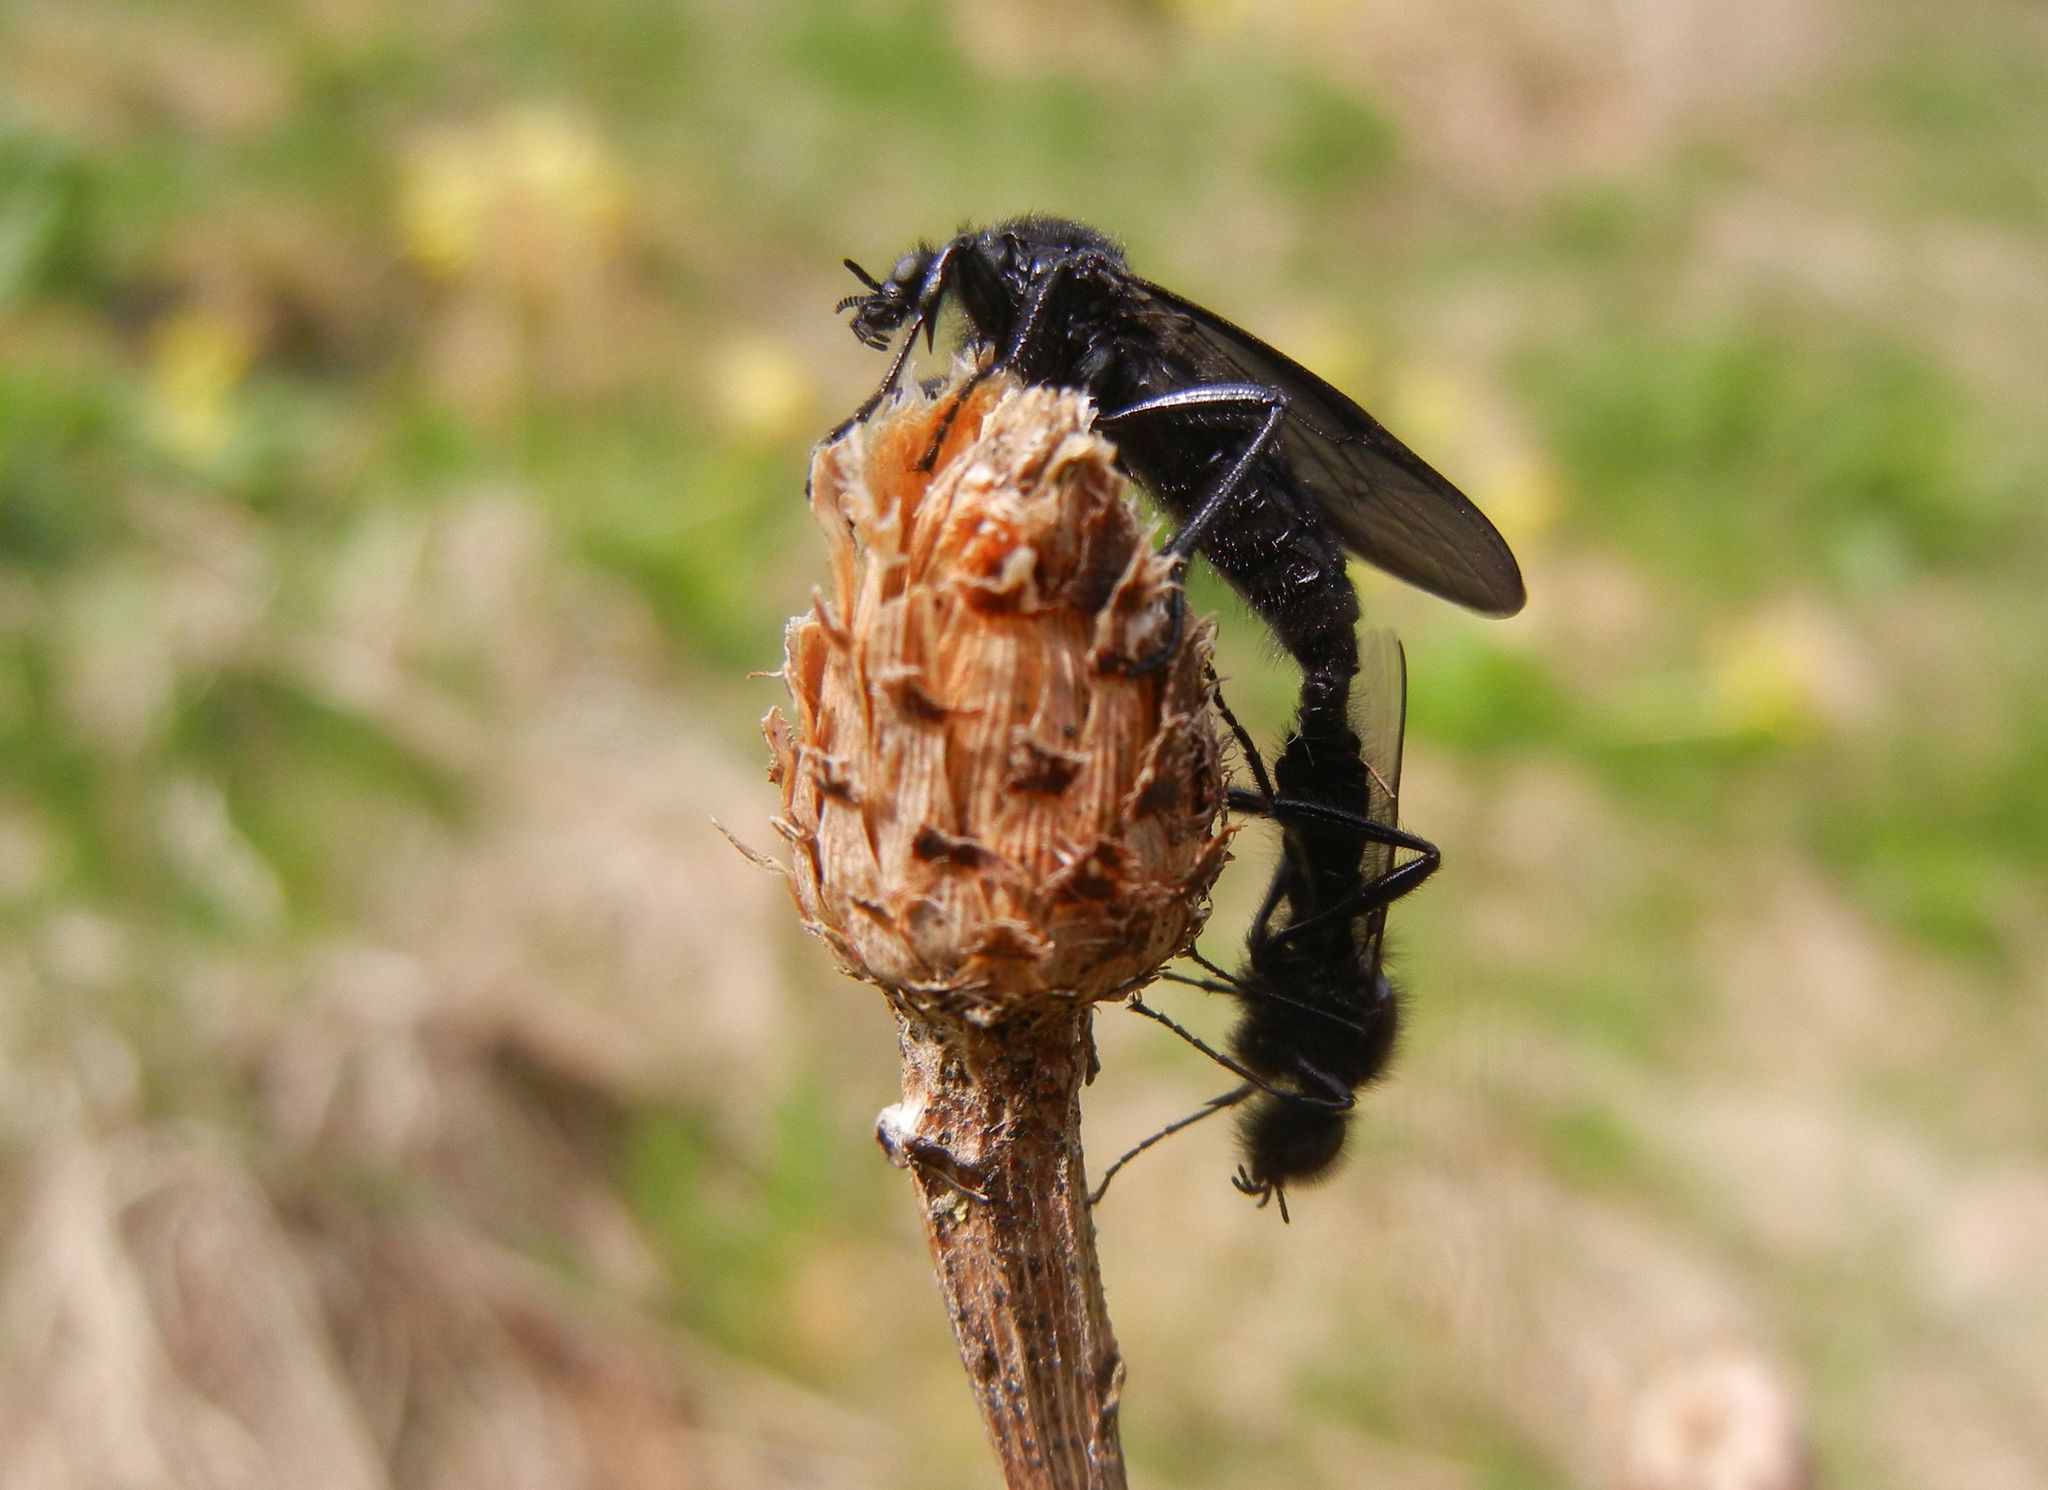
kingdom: Animalia
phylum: Arthropoda
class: Insecta
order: Diptera
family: Bibionidae
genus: Bibio
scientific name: Bibio marci
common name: St marks fly
